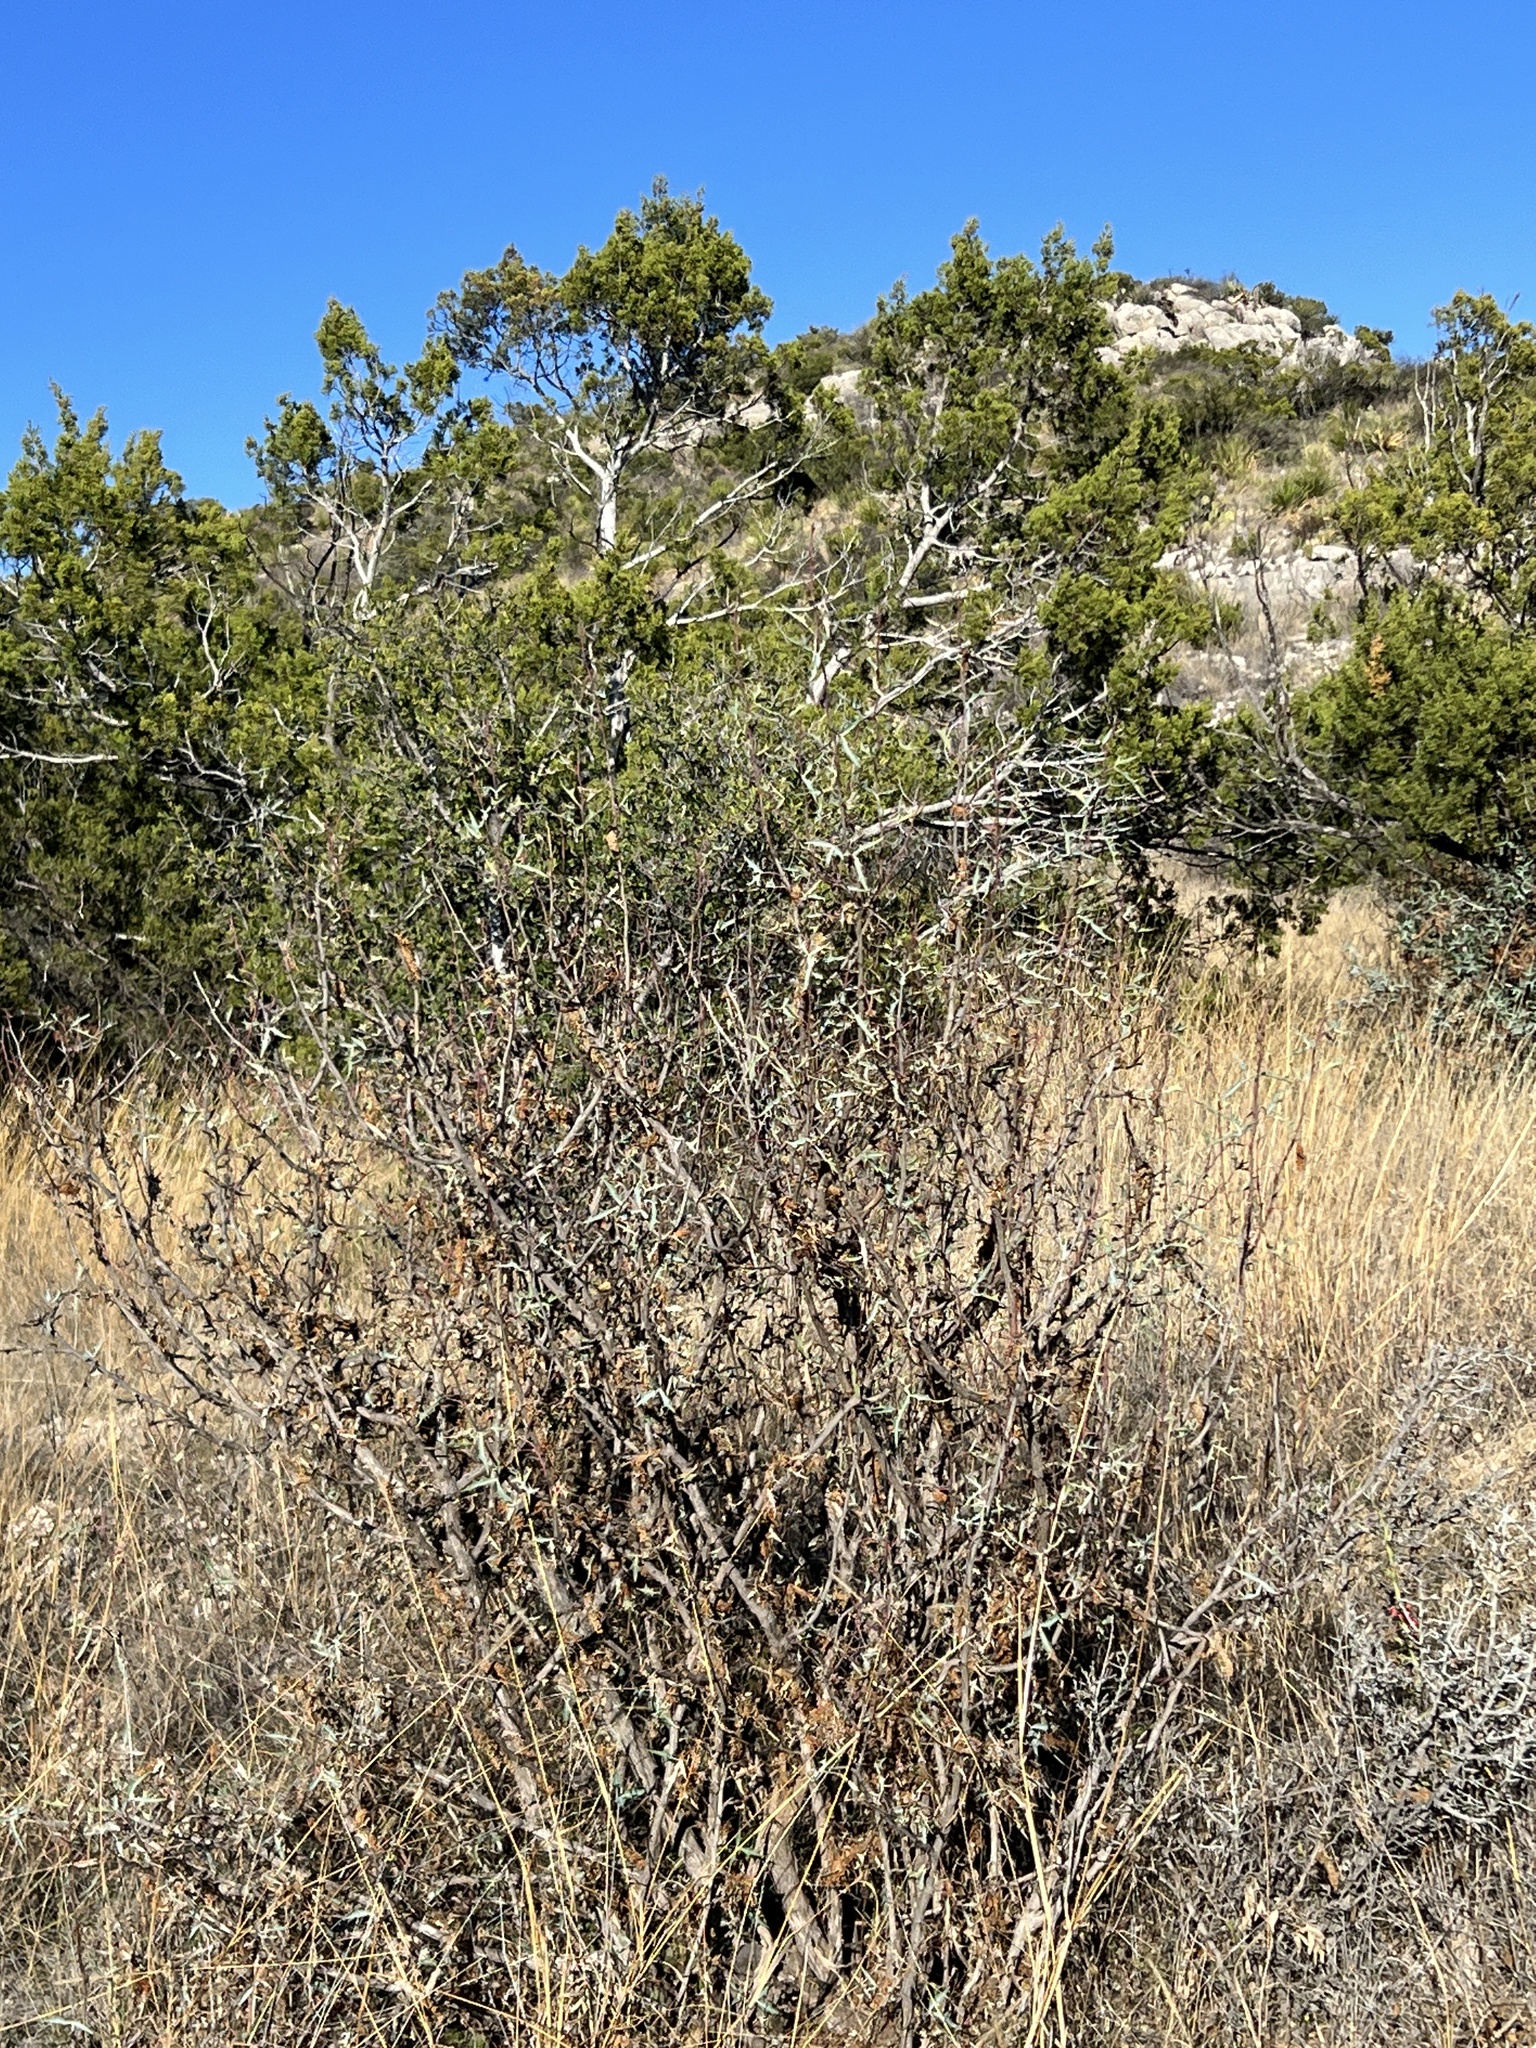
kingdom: Plantae
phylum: Tracheophyta
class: Magnoliopsida
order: Ranunculales
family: Berberidaceae
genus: Alloberberis
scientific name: Alloberberis trifoliolata
